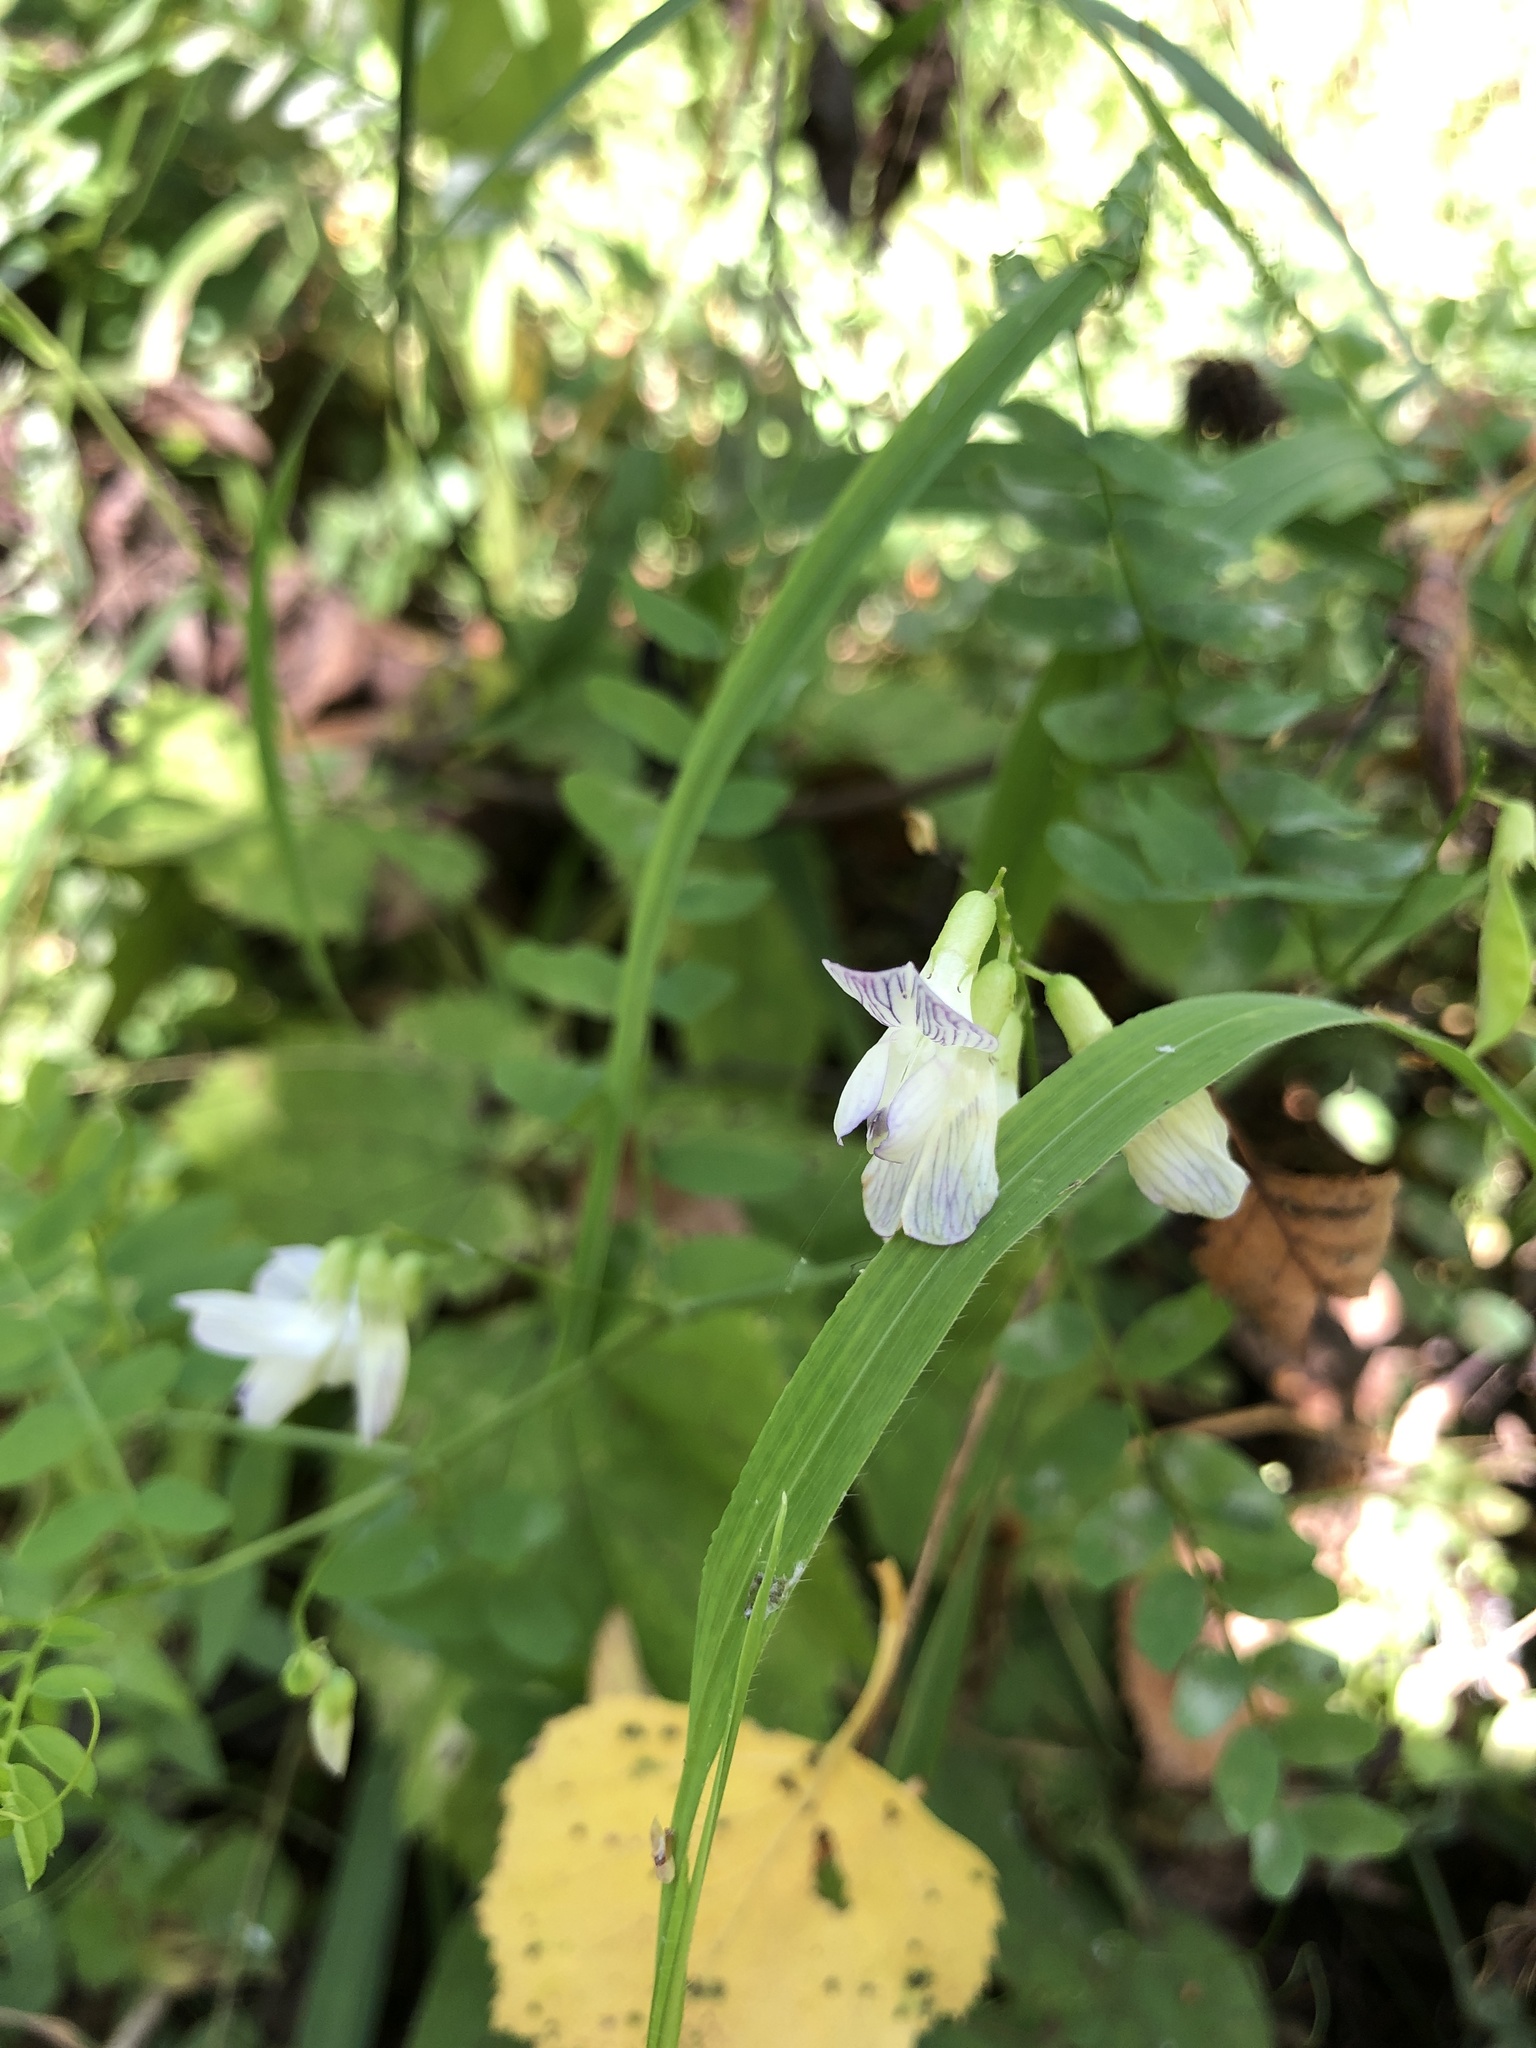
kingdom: Plantae
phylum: Tracheophyta
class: Magnoliopsida
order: Fabales
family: Fabaceae
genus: Vicia
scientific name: Vicia sylvatica
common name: Wood vetch
